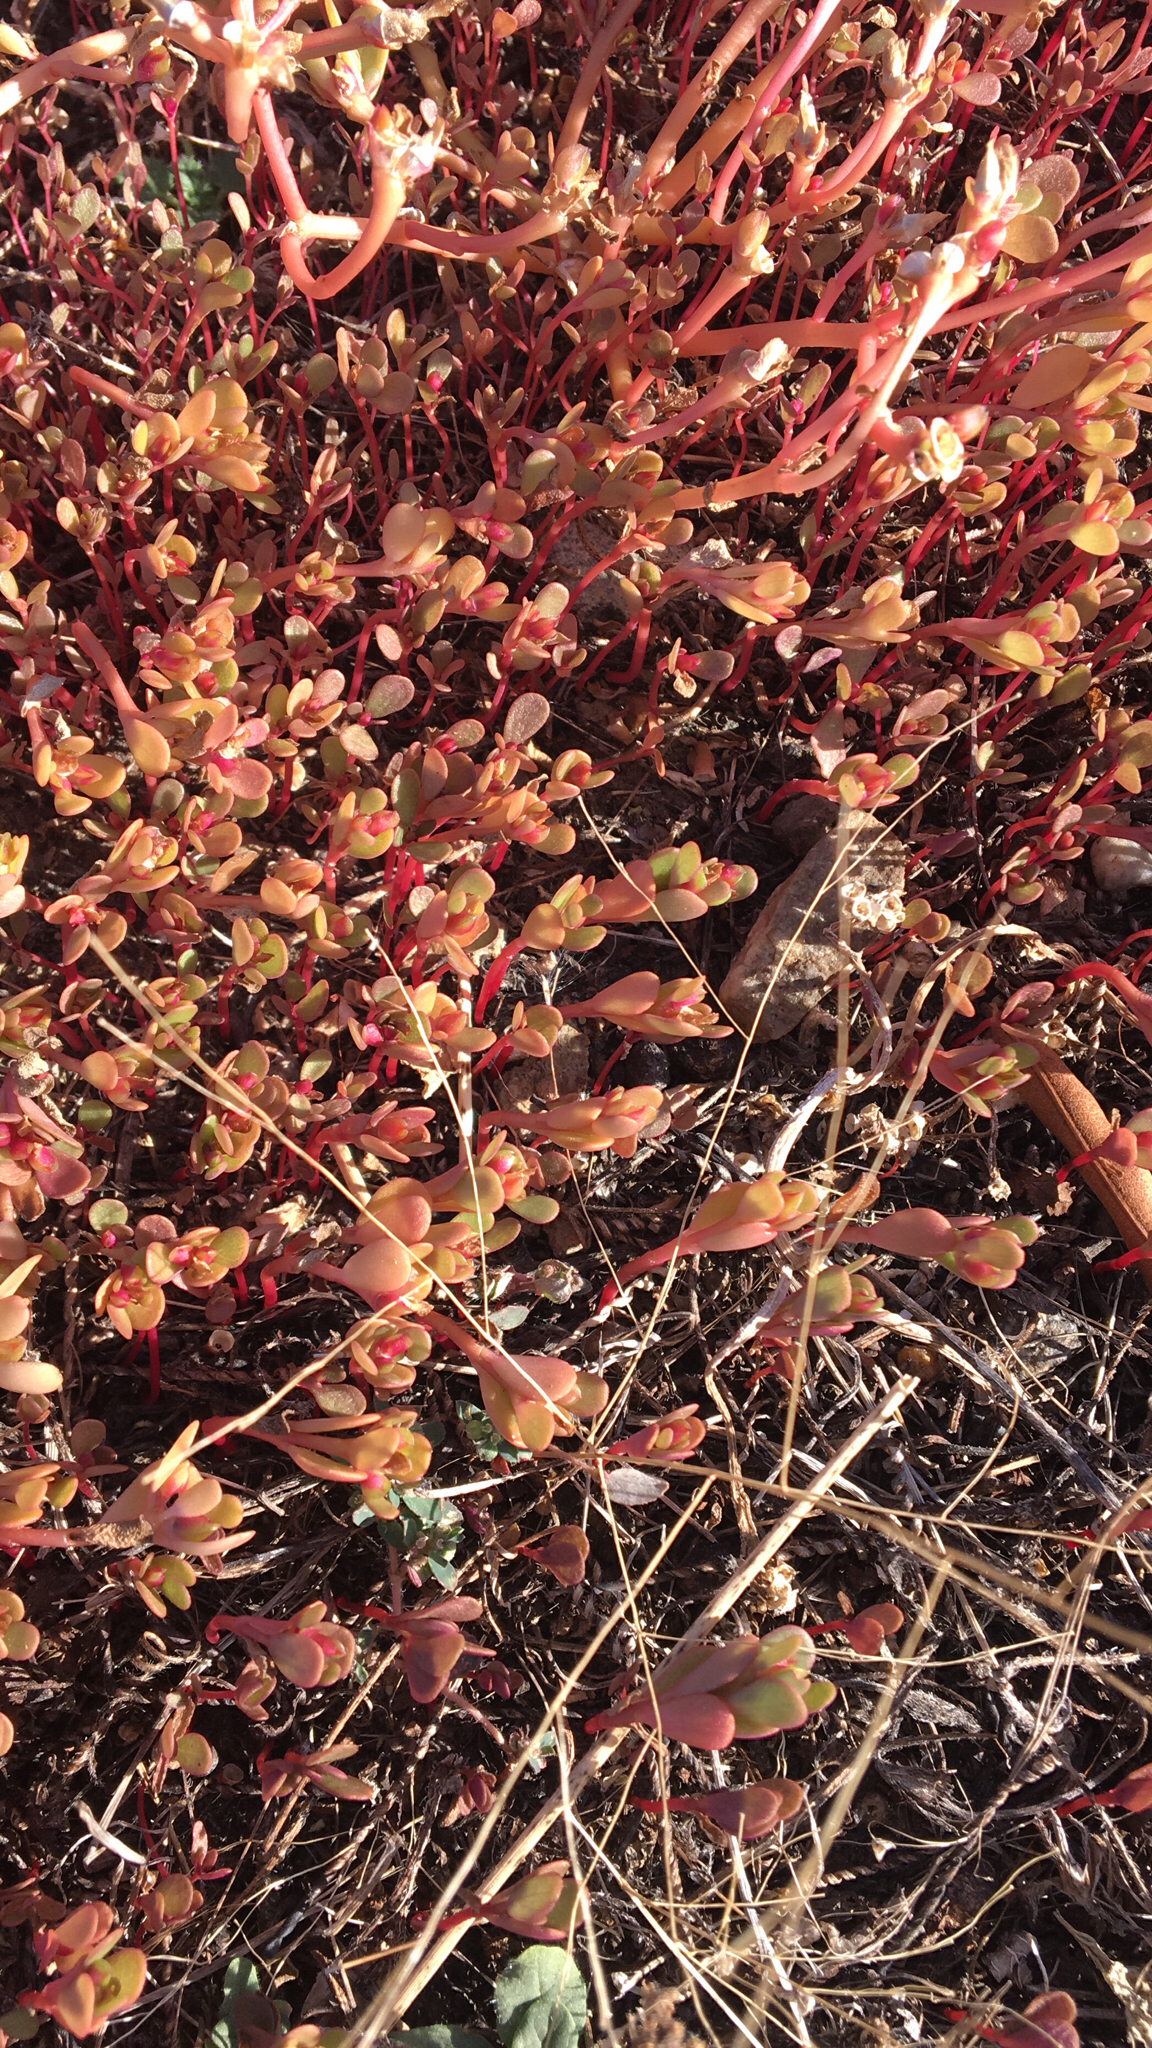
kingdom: Plantae
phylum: Tracheophyta
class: Magnoliopsida
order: Caryophyllales
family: Portulacaceae
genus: Portulaca
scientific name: Portulaca oleracea
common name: Common purslane
